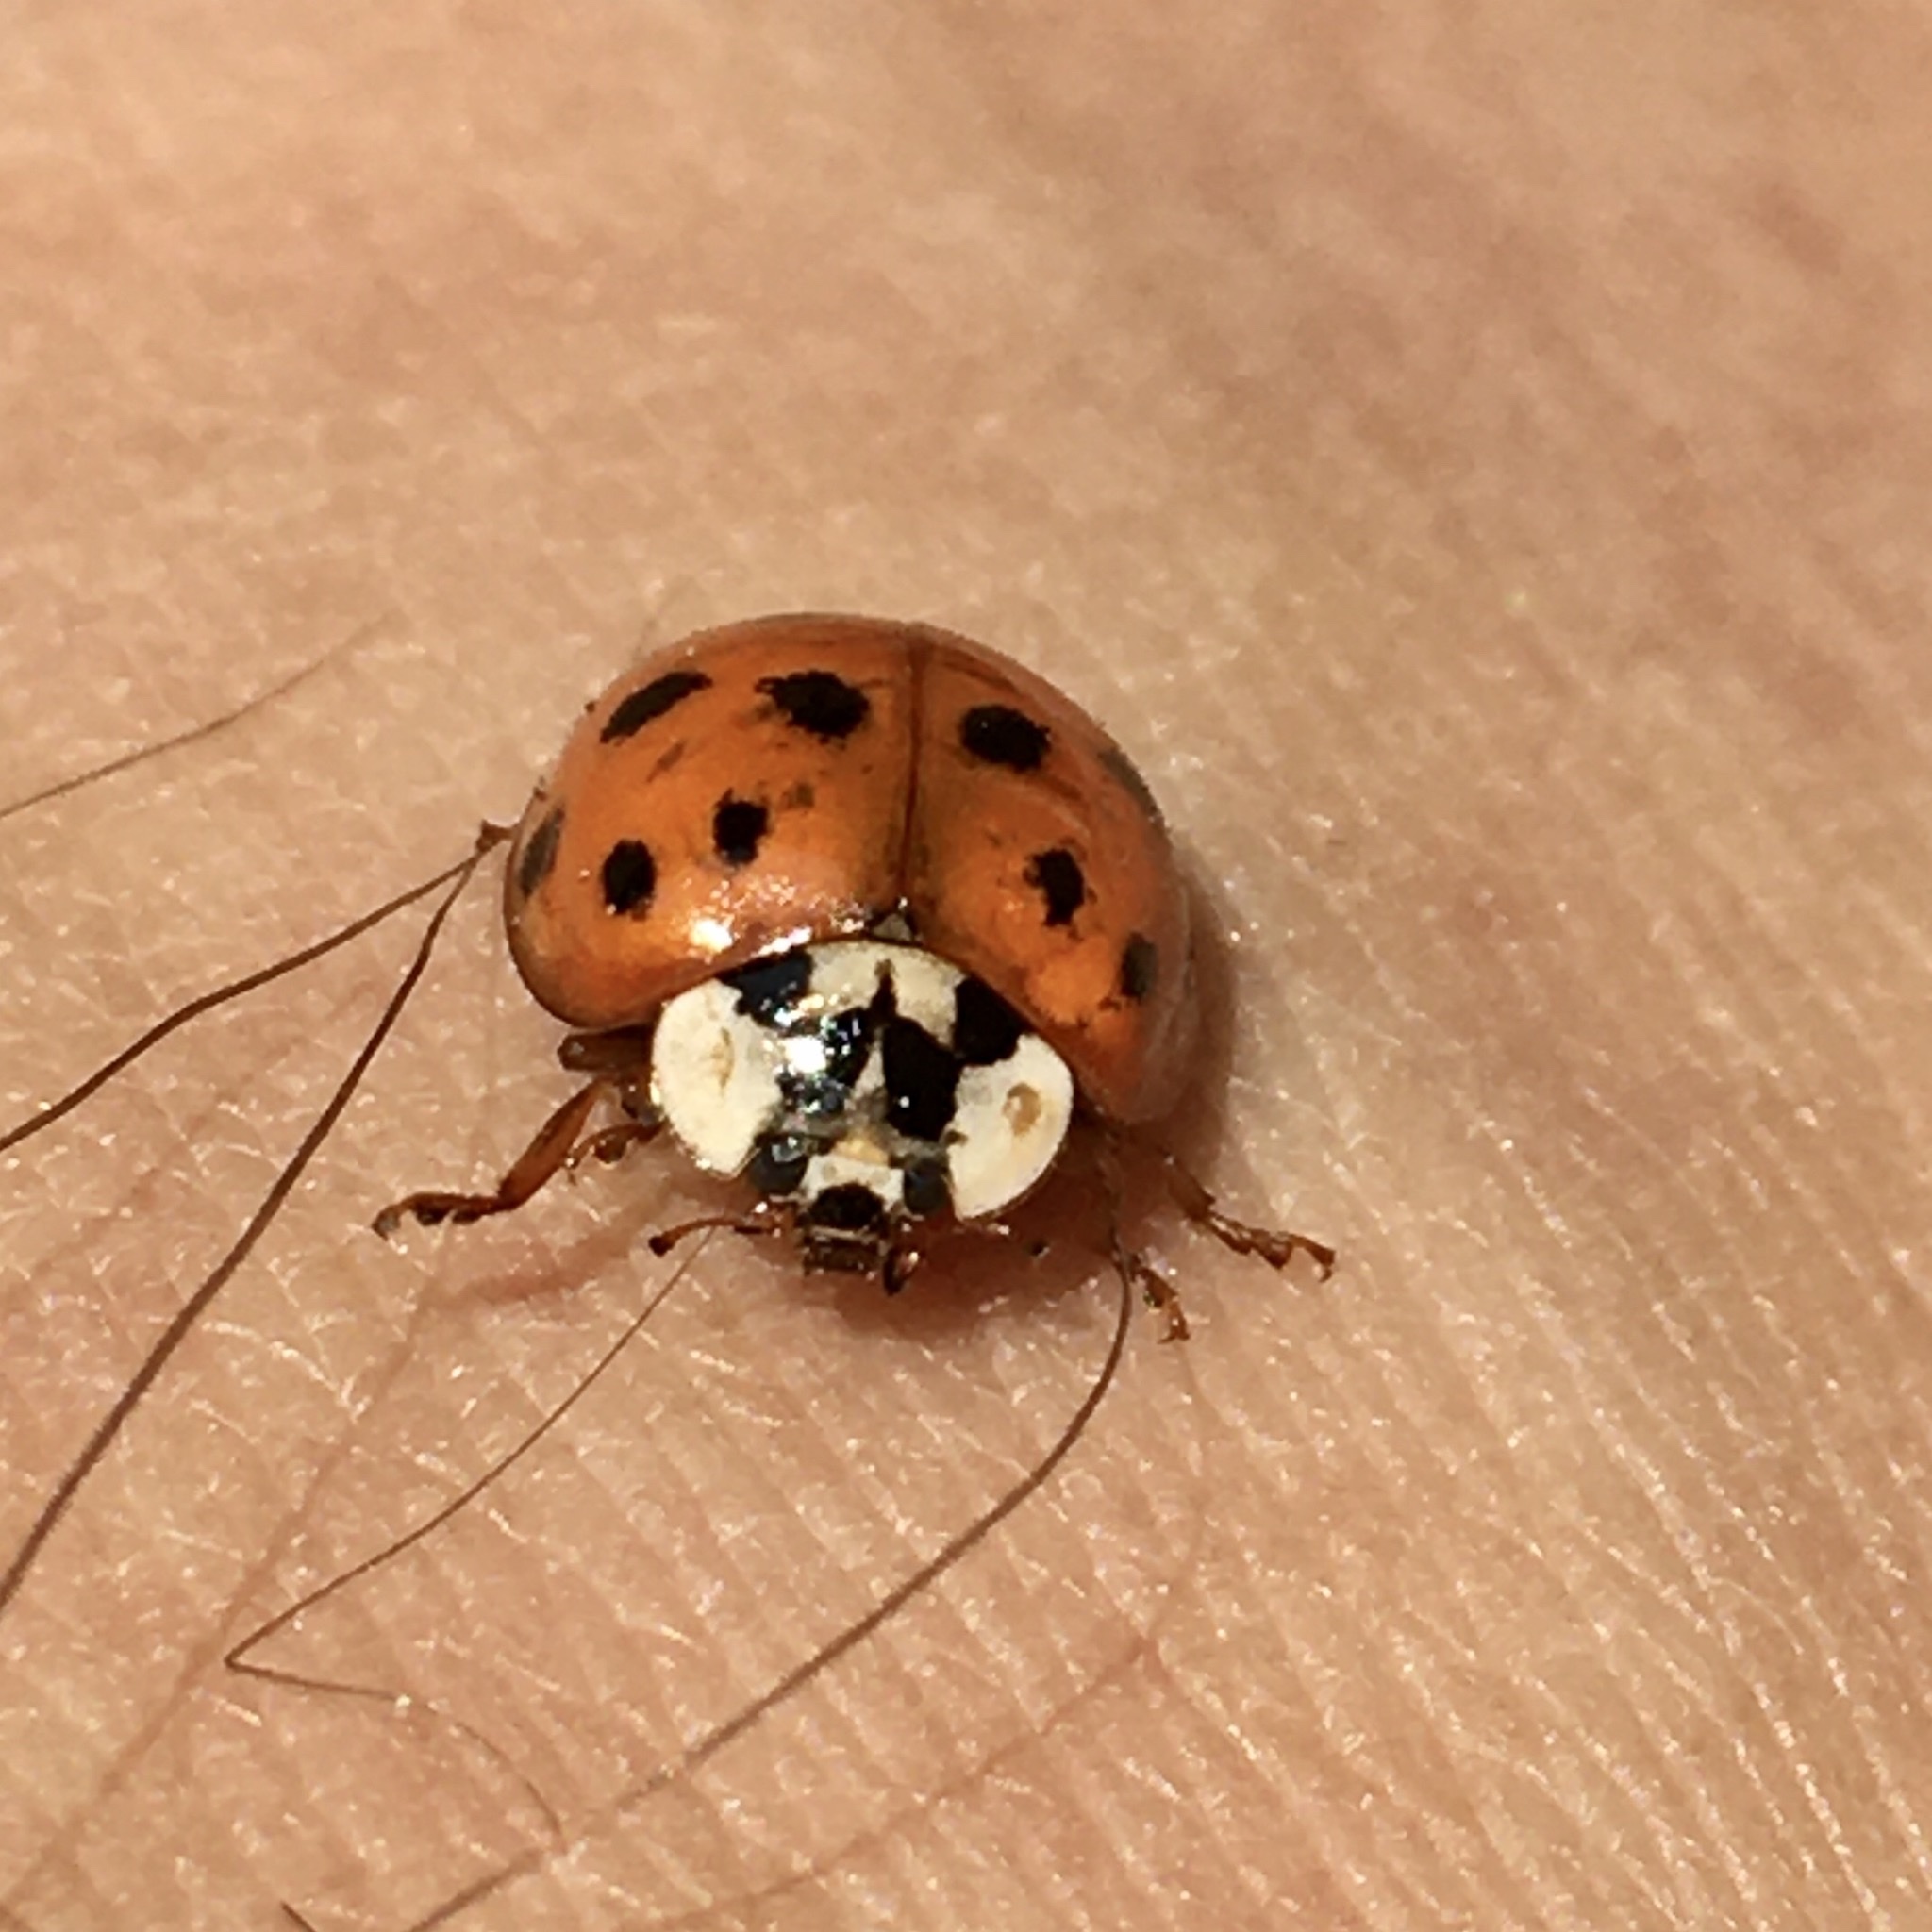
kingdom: Animalia
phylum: Arthropoda
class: Insecta
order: Coleoptera
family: Coccinellidae
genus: Harmonia
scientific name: Harmonia axyridis
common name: Harlequin ladybird
